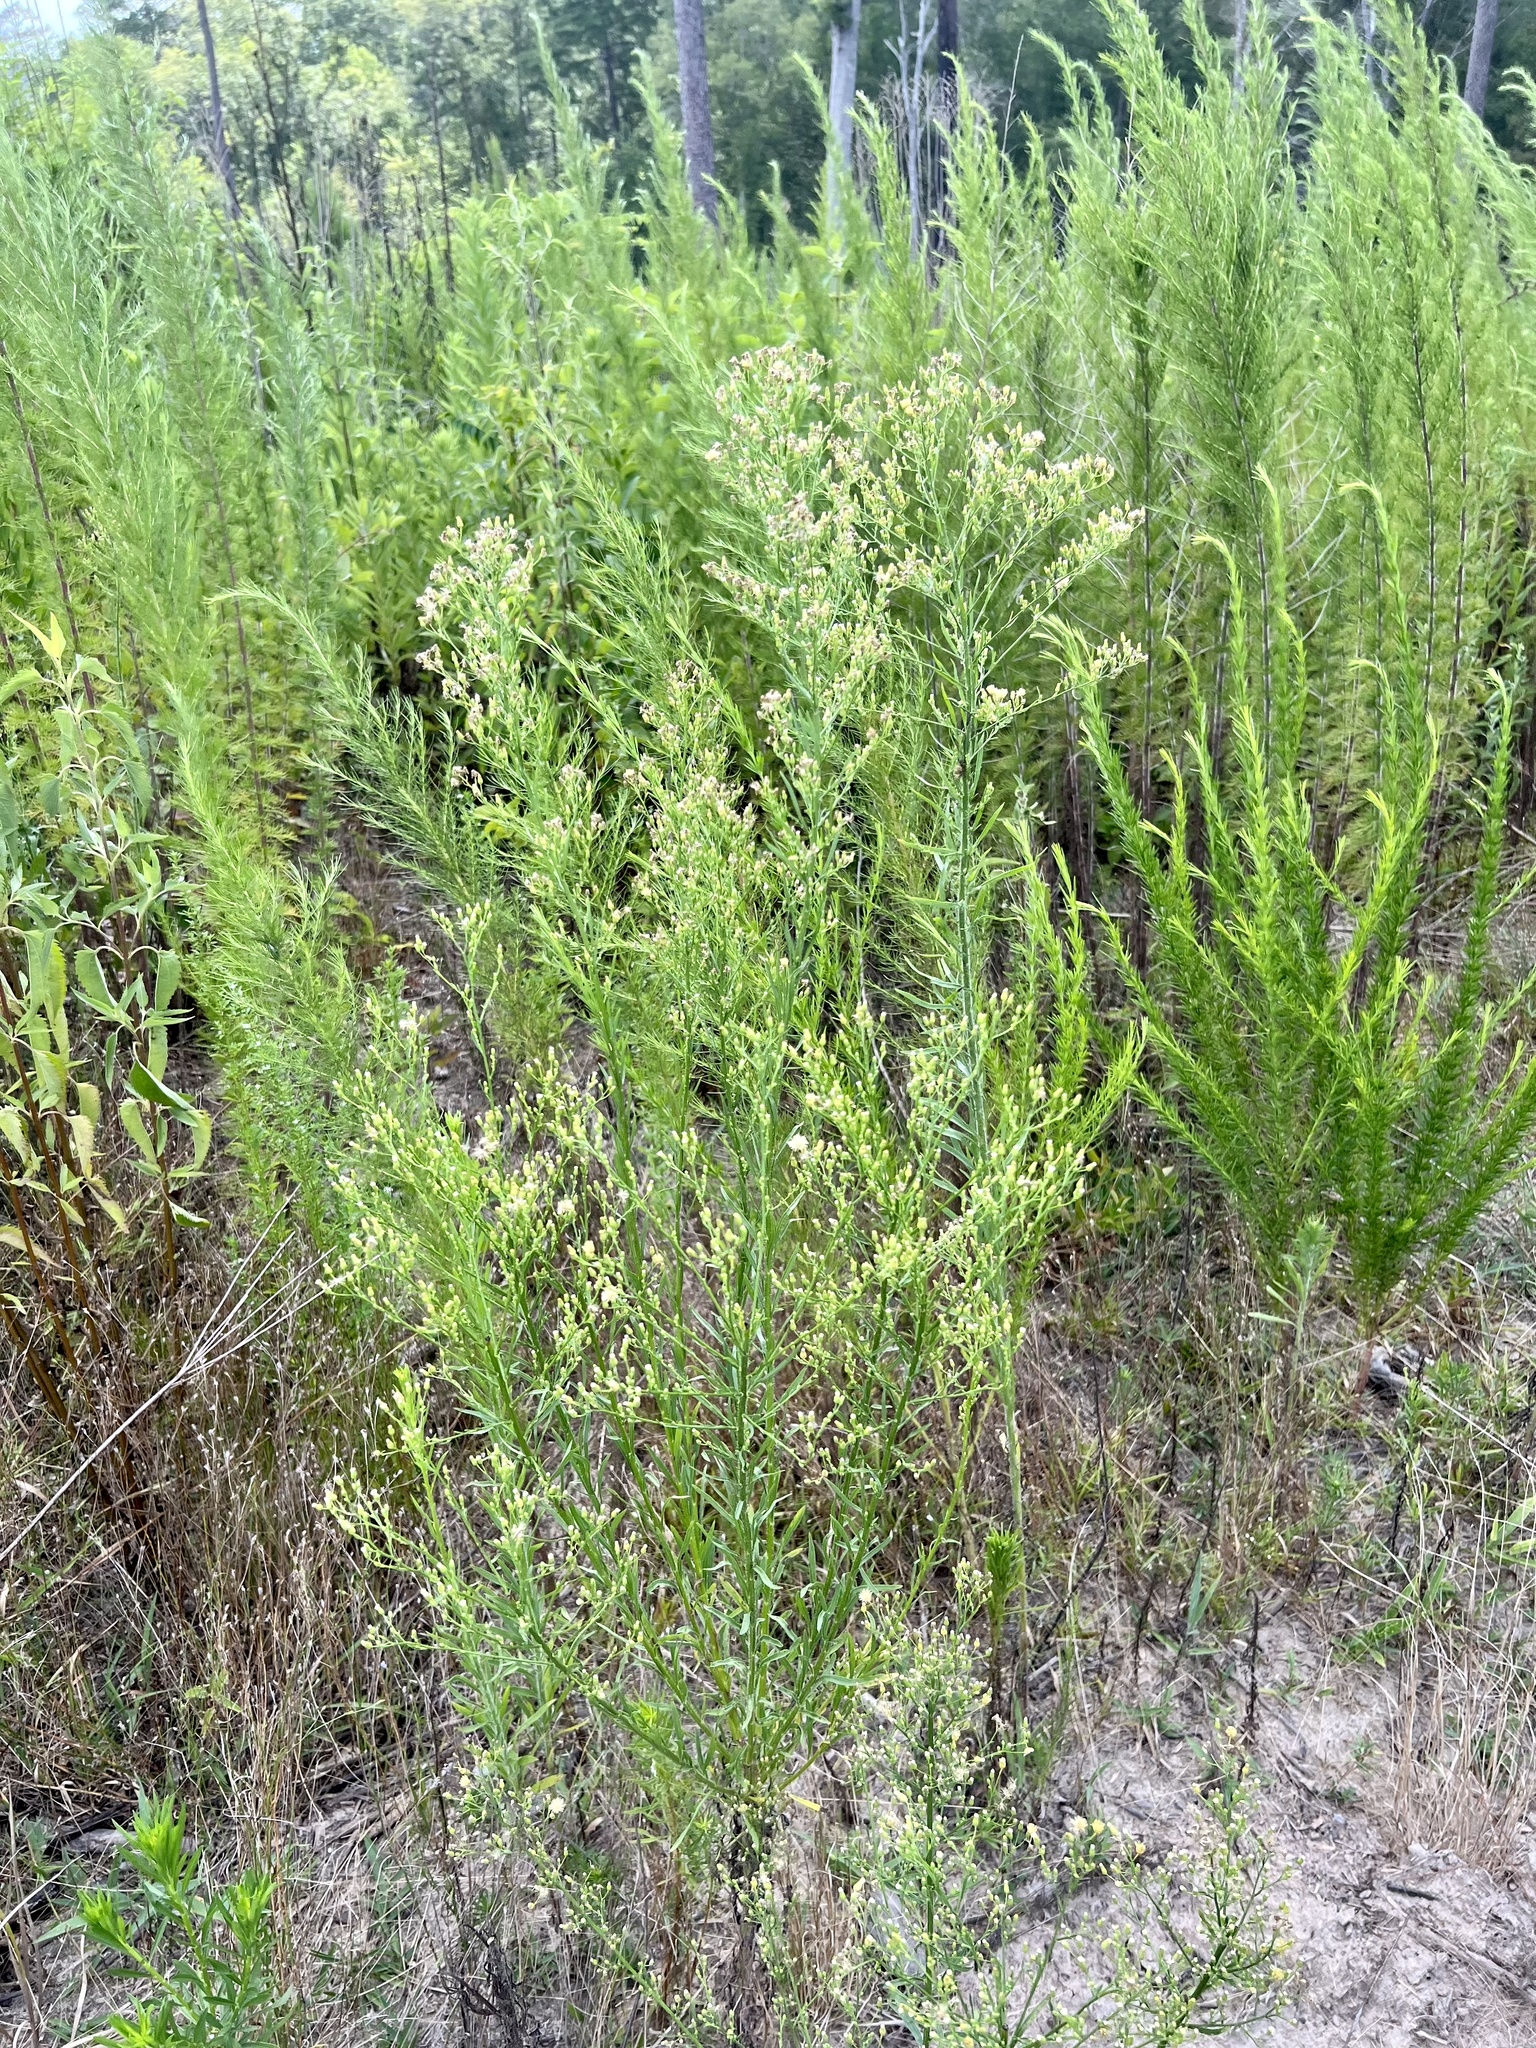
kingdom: Plantae
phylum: Tracheophyta
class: Magnoliopsida
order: Asterales
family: Asteraceae
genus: Erigeron
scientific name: Erigeron canadensis
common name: Canadian fleabane
